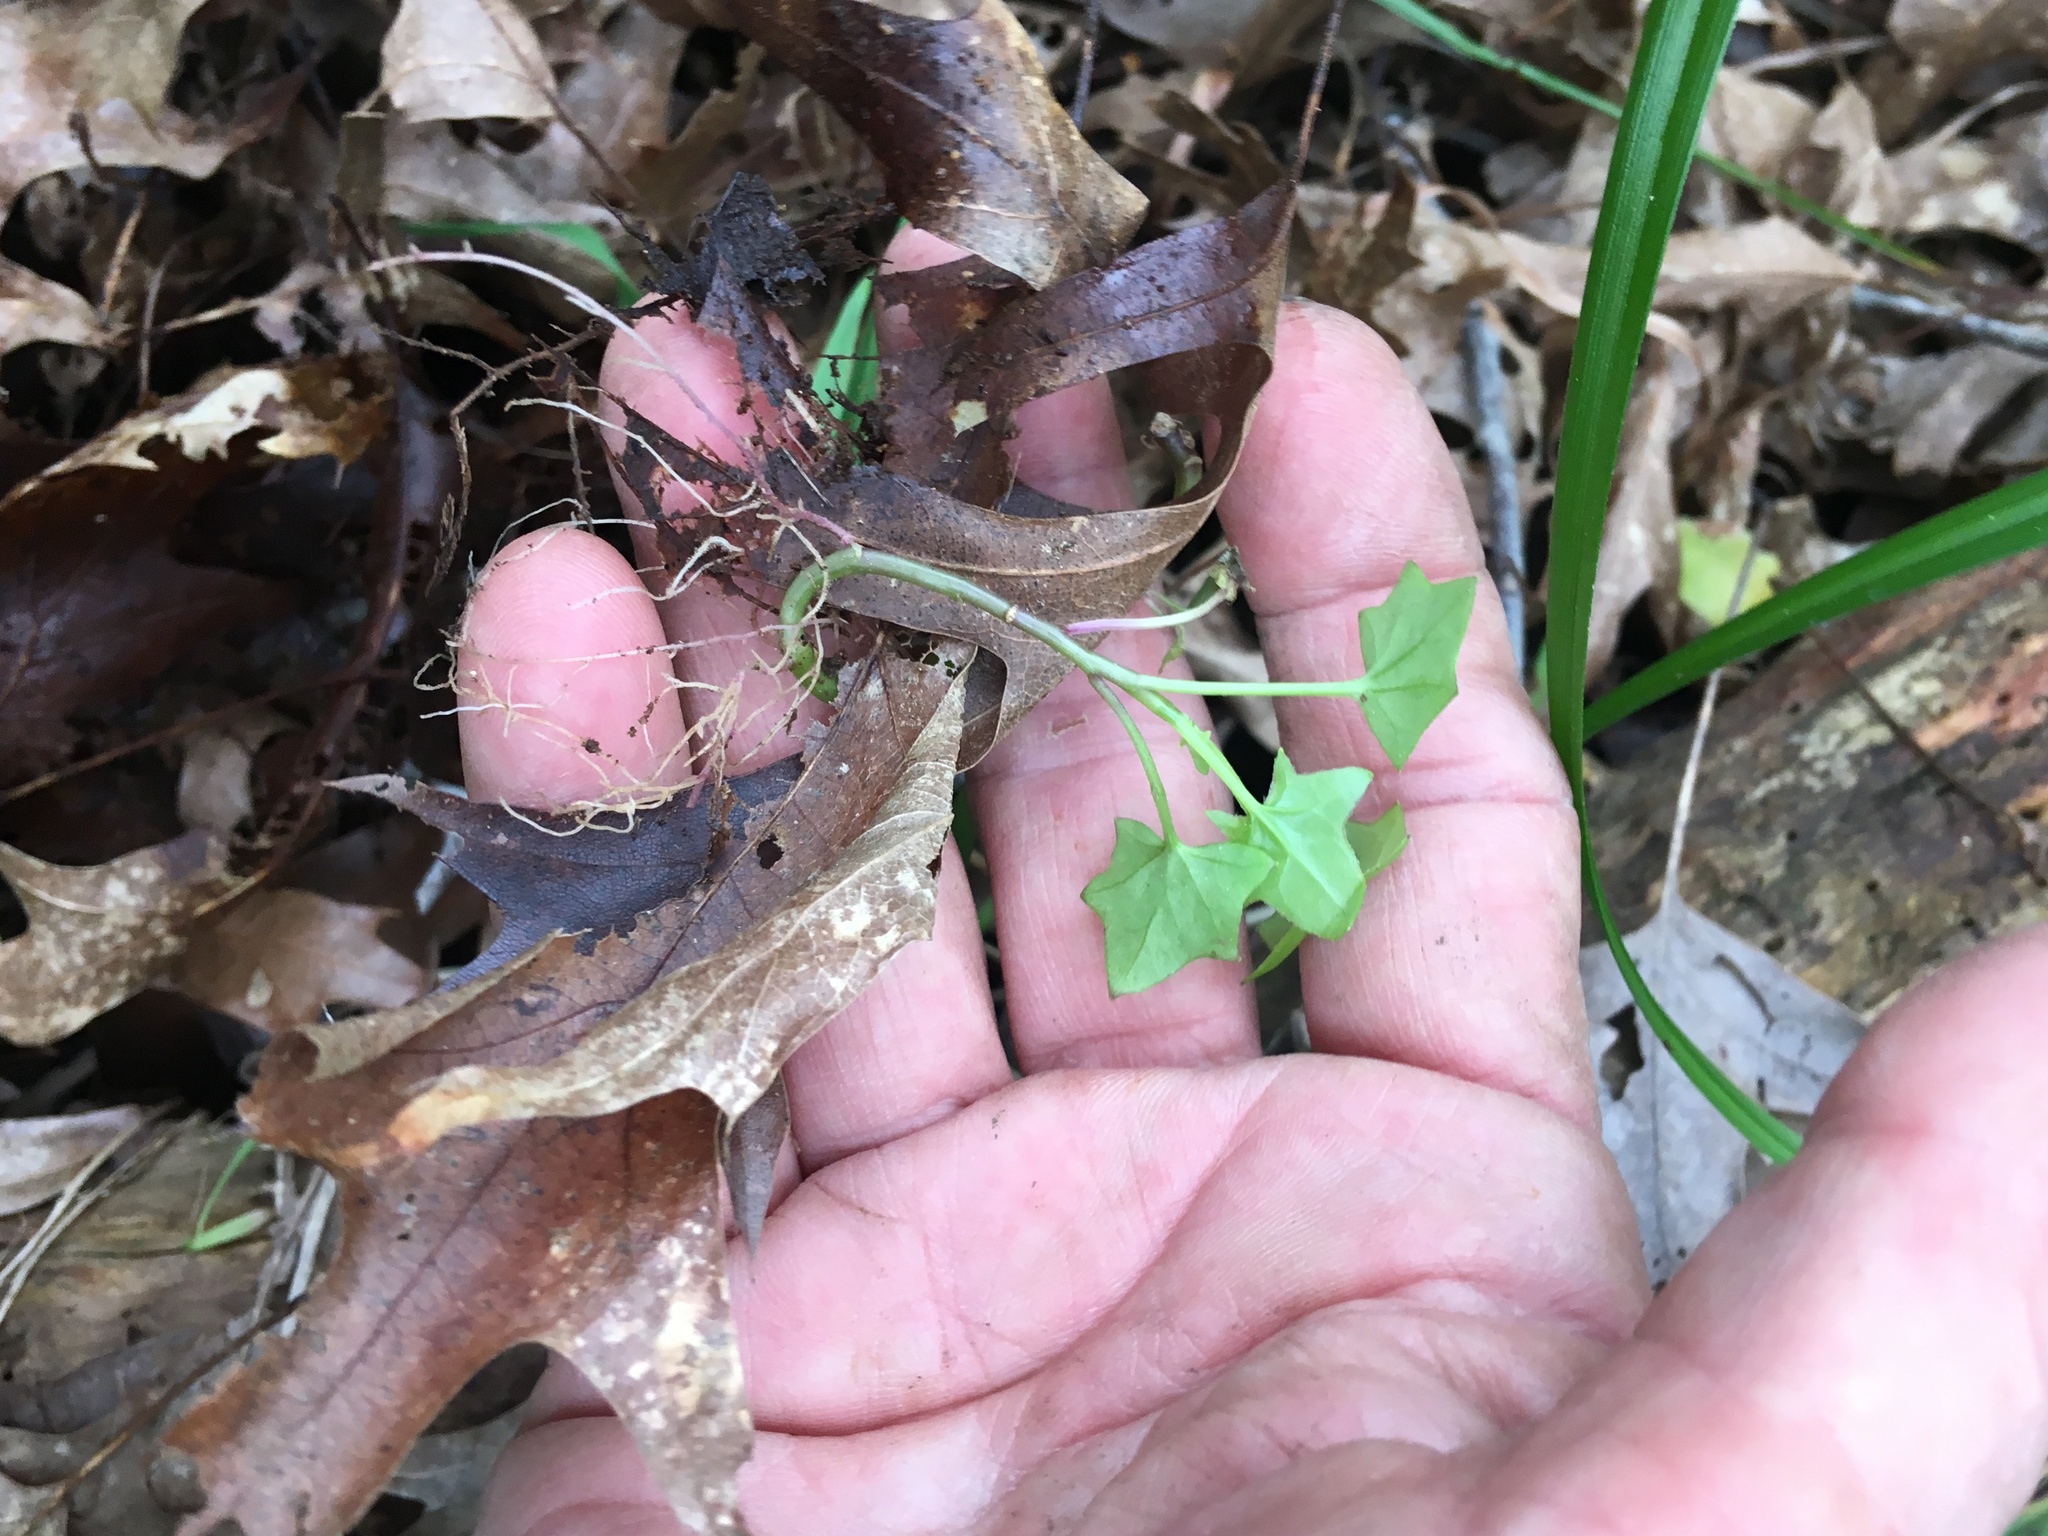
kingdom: Plantae
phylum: Tracheophyta
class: Magnoliopsida
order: Asterales
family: Asteraceae
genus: Delairea
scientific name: Delairea odorata
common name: Cape-ivy
